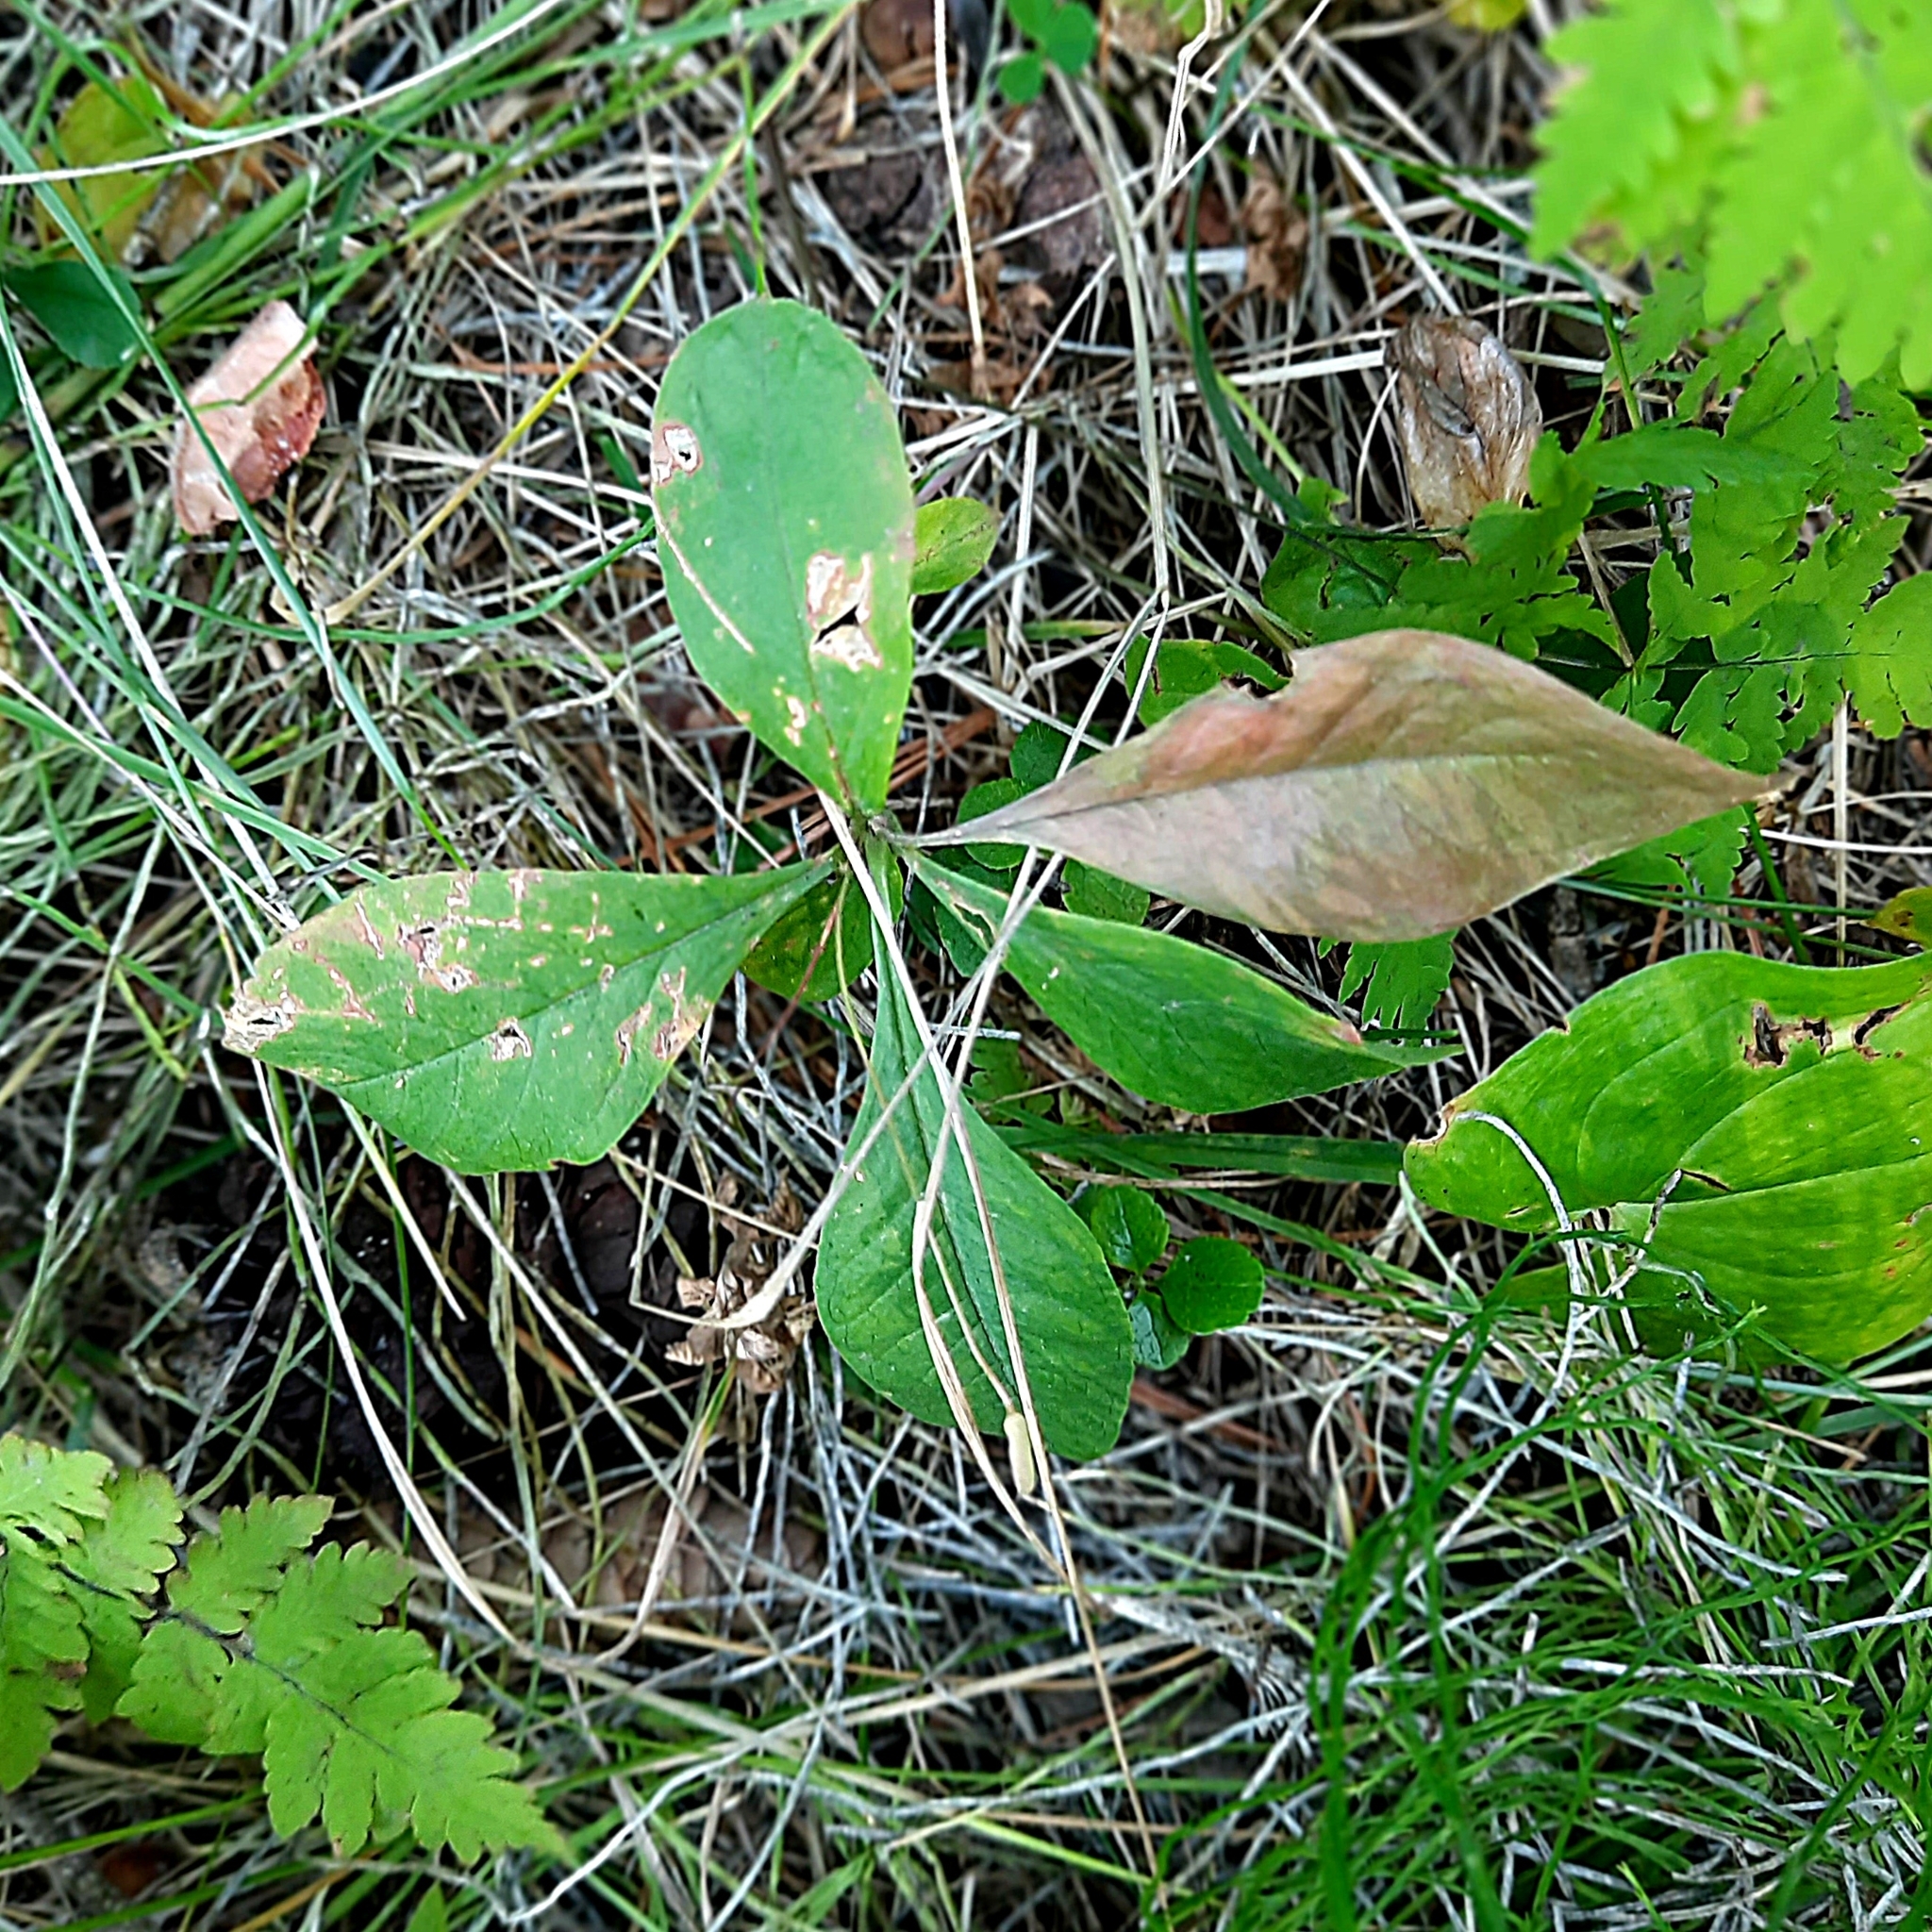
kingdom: Plantae
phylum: Tracheophyta
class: Magnoliopsida
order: Ericales
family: Primulaceae
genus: Lysimachia
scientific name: Lysimachia europaea
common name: Arctic starflower
